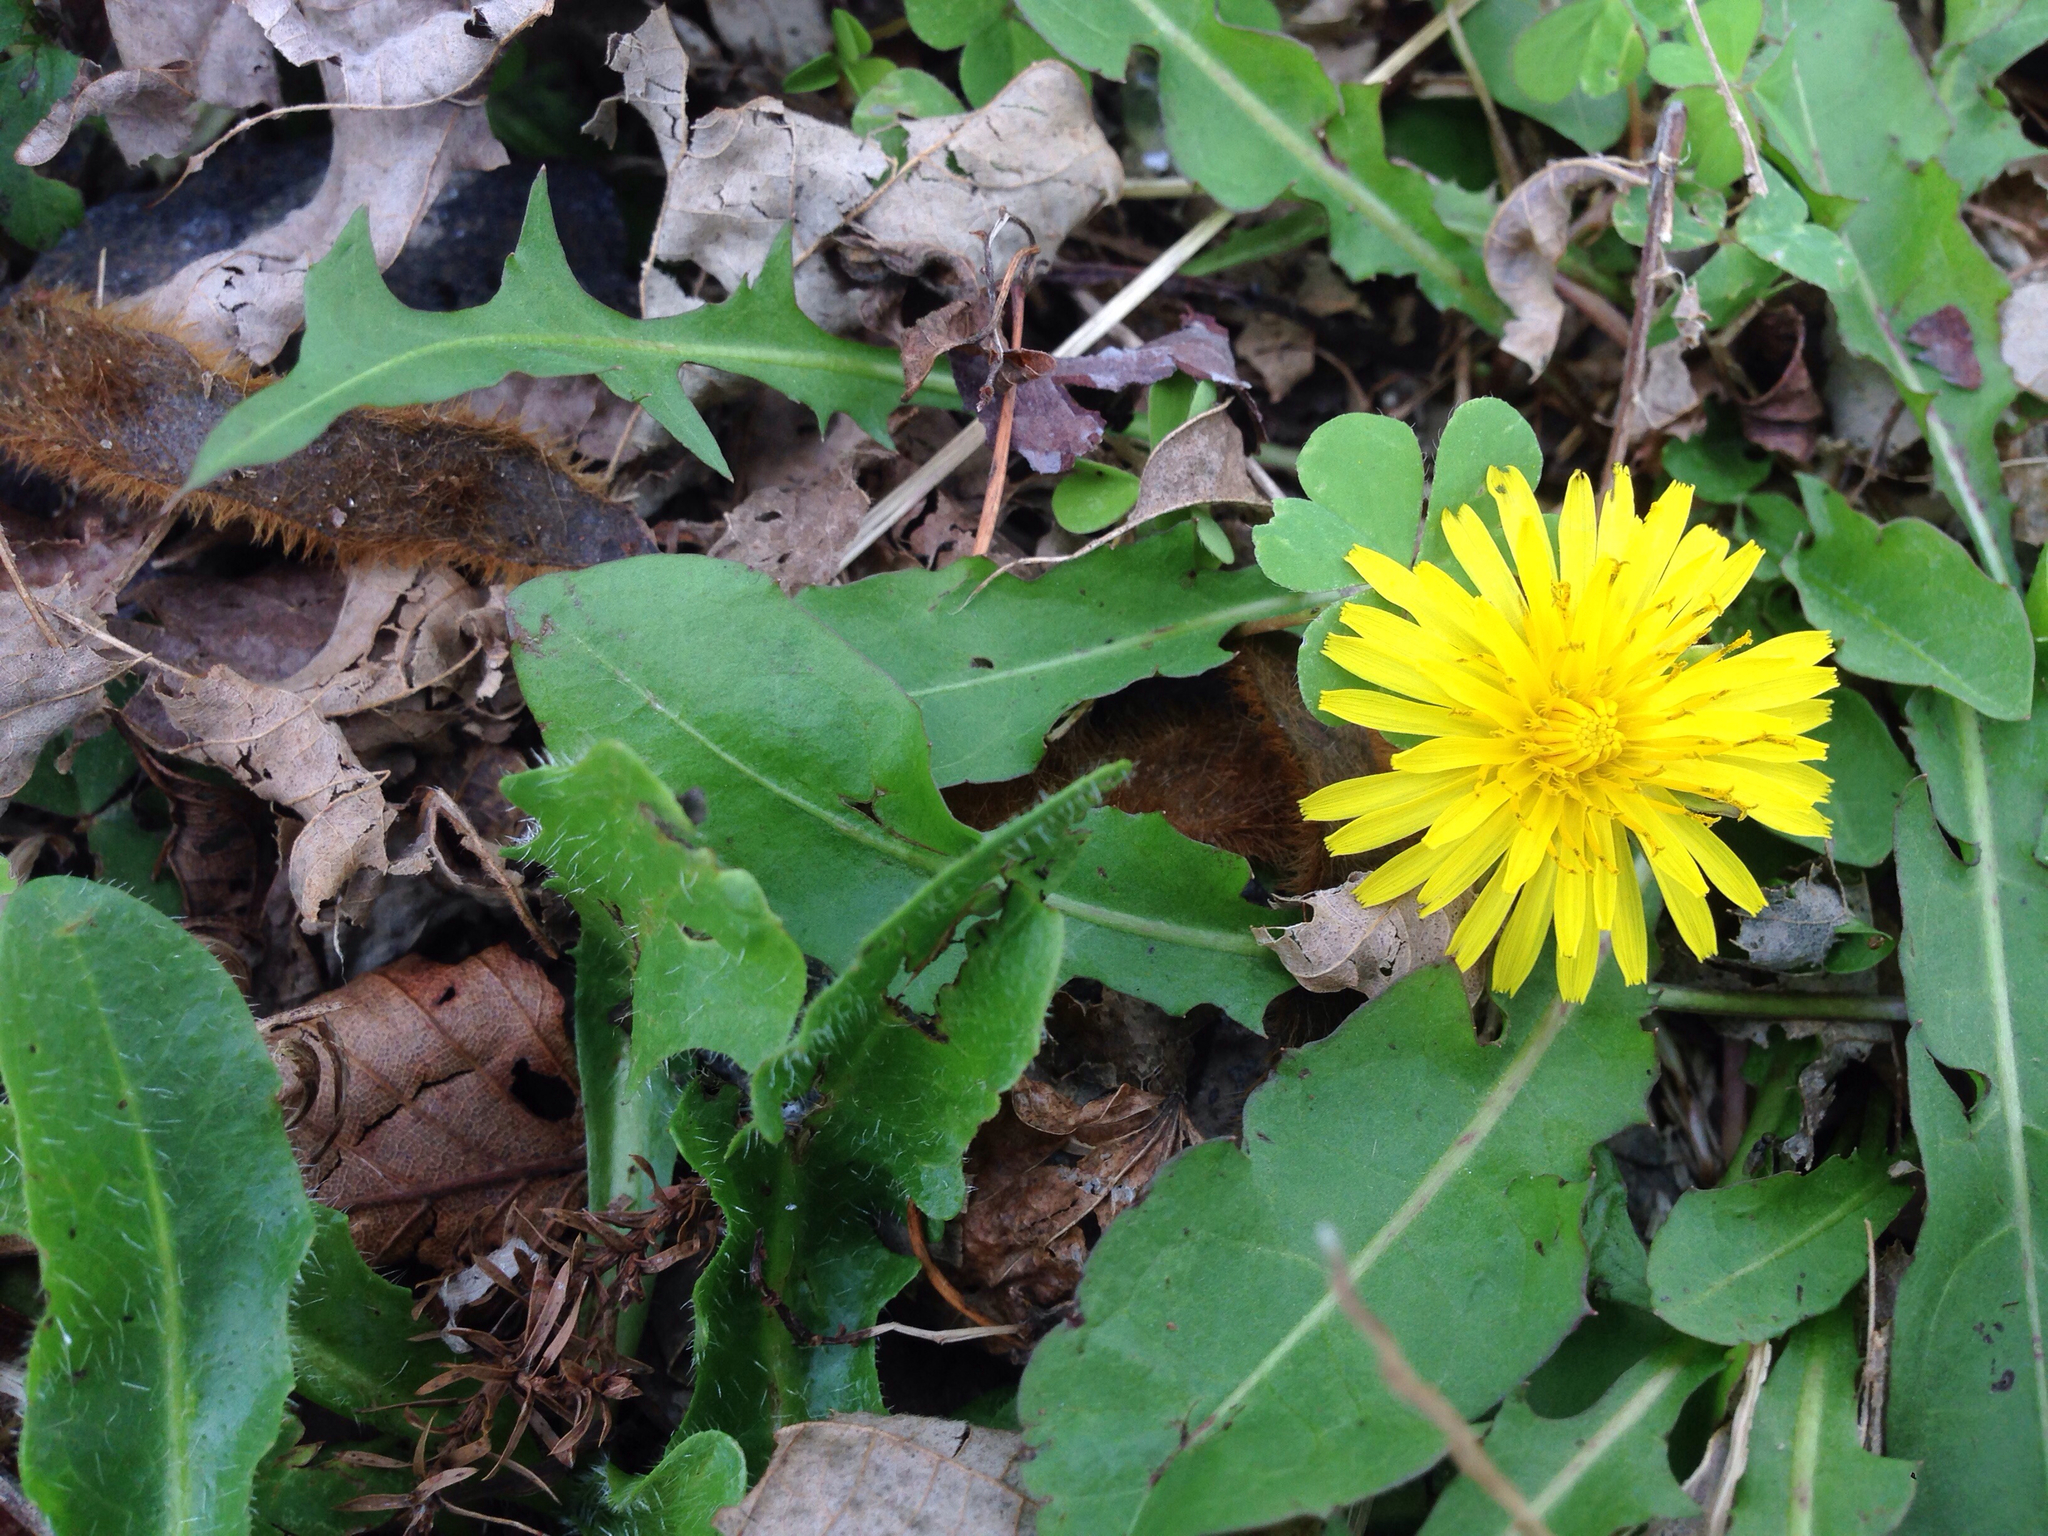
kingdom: Plantae
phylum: Tracheophyta
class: Magnoliopsida
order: Asterales
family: Asteraceae
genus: Taraxacum
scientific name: Taraxacum officinale
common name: Common dandelion
